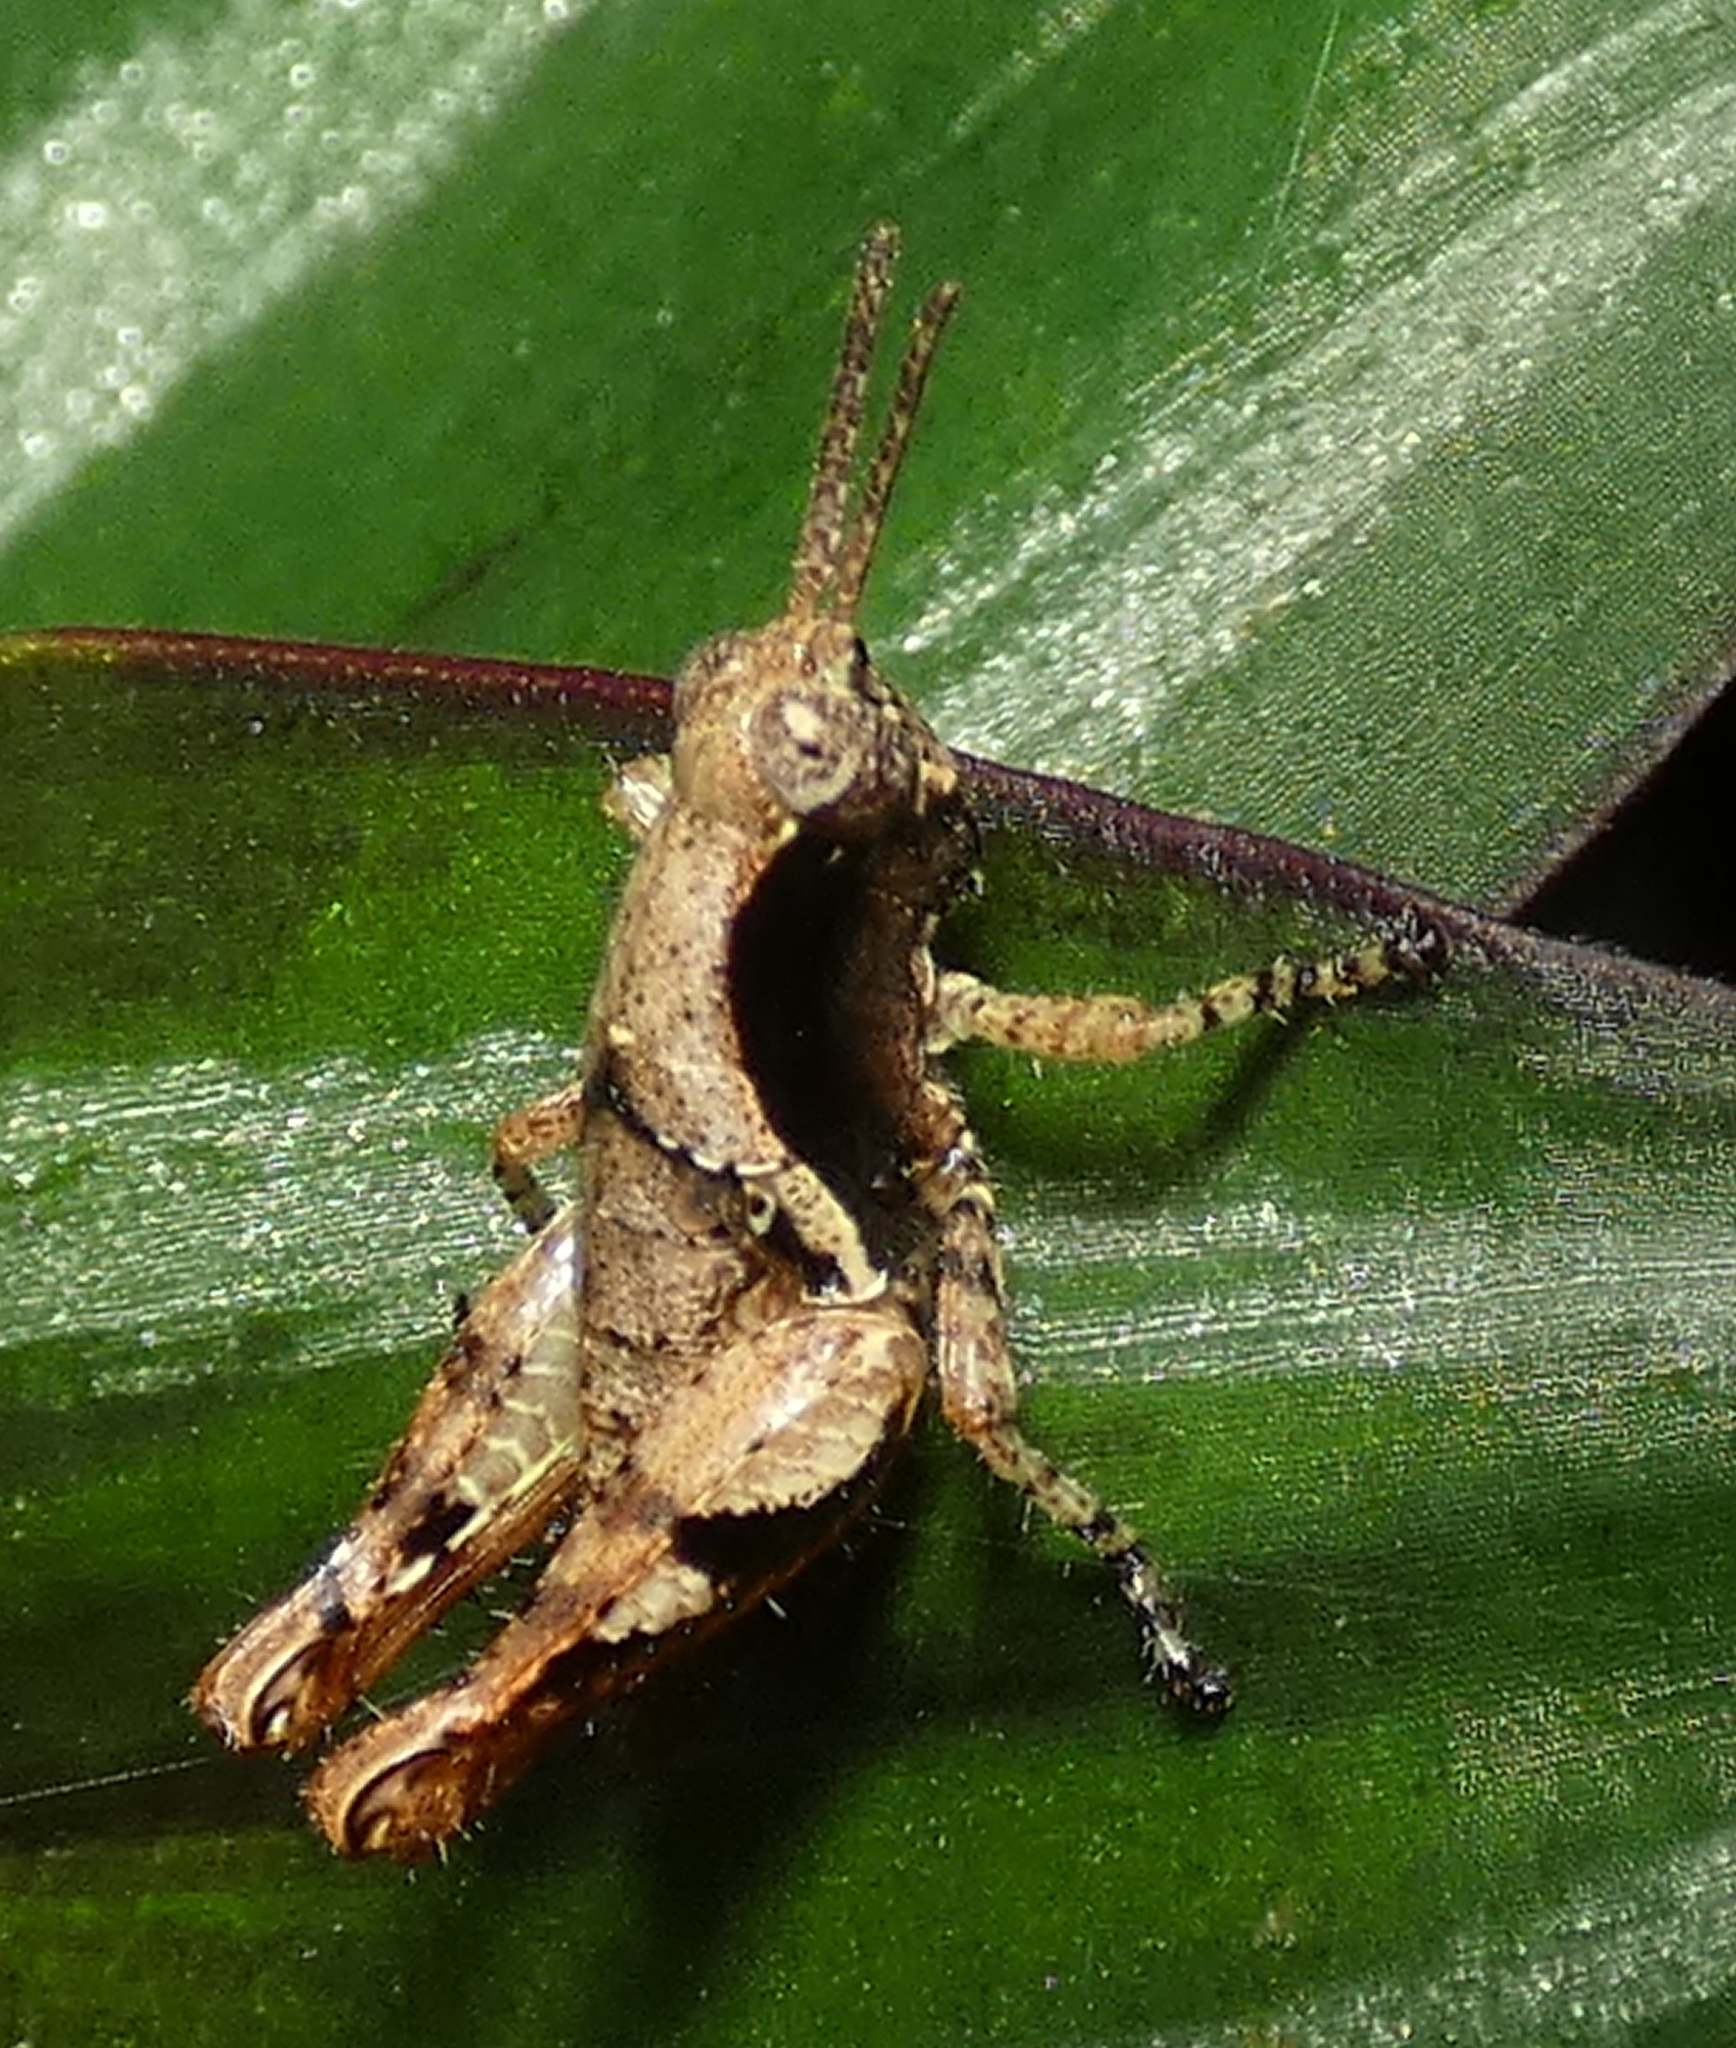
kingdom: Animalia
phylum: Arthropoda
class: Insecta
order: Orthoptera
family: Acrididae
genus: Eujivarus
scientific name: Eujivarus meridionalis
